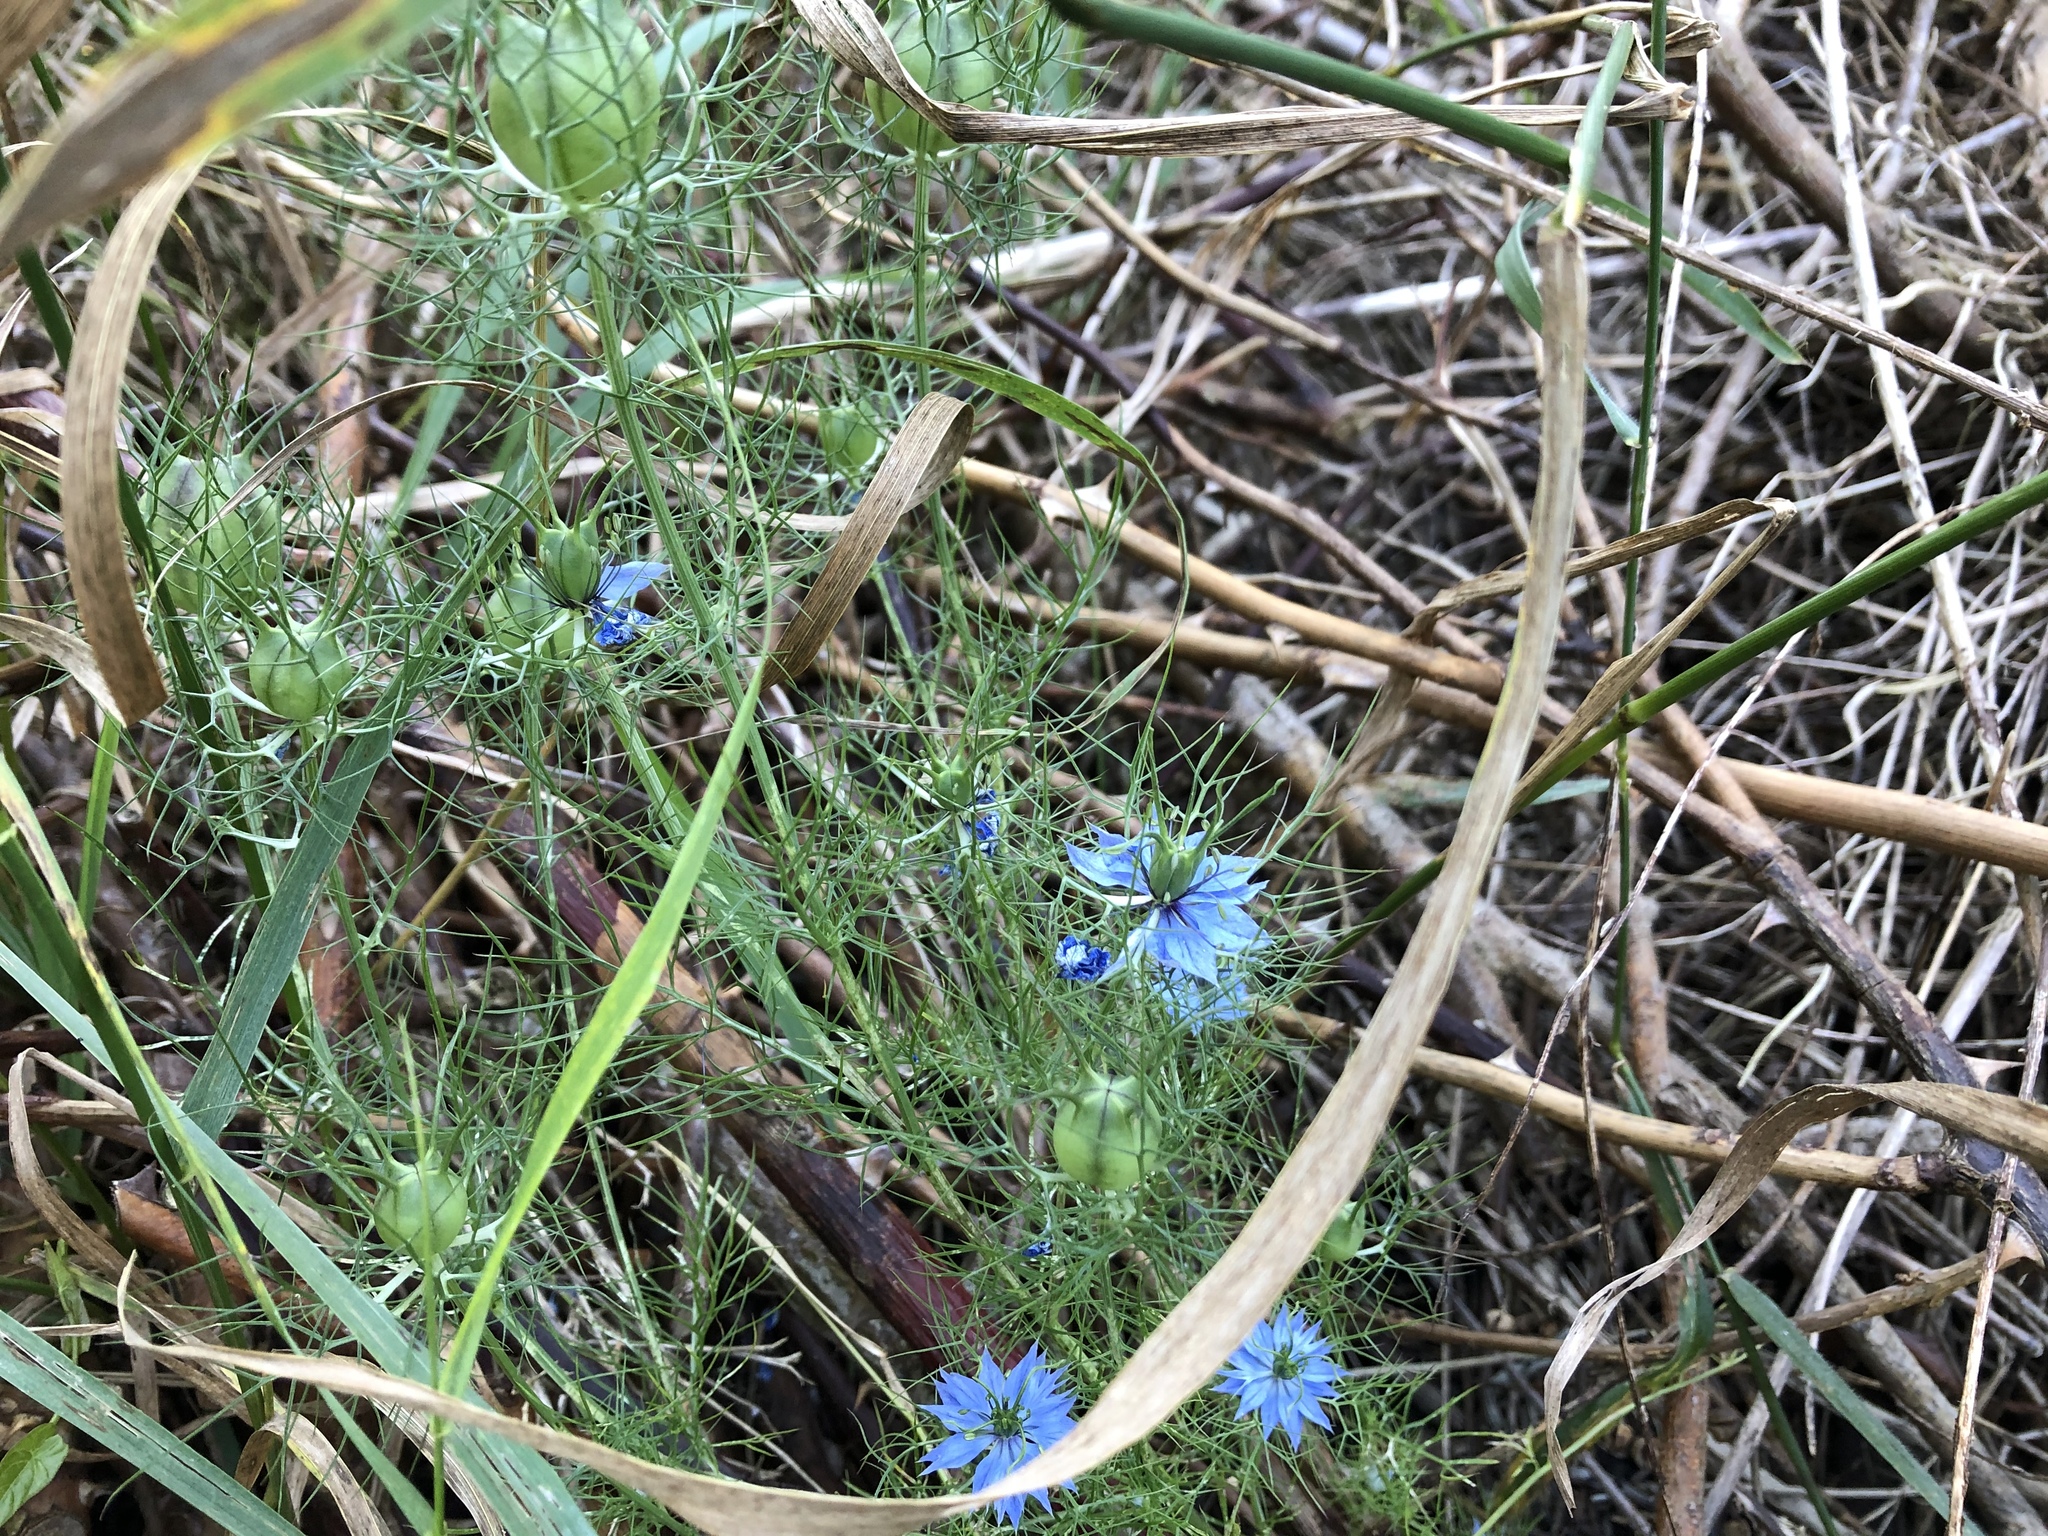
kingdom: Plantae
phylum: Tracheophyta
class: Magnoliopsida
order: Ranunculales
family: Ranunculaceae
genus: Nigella
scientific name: Nigella damascena
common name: Love-in-a-mist
